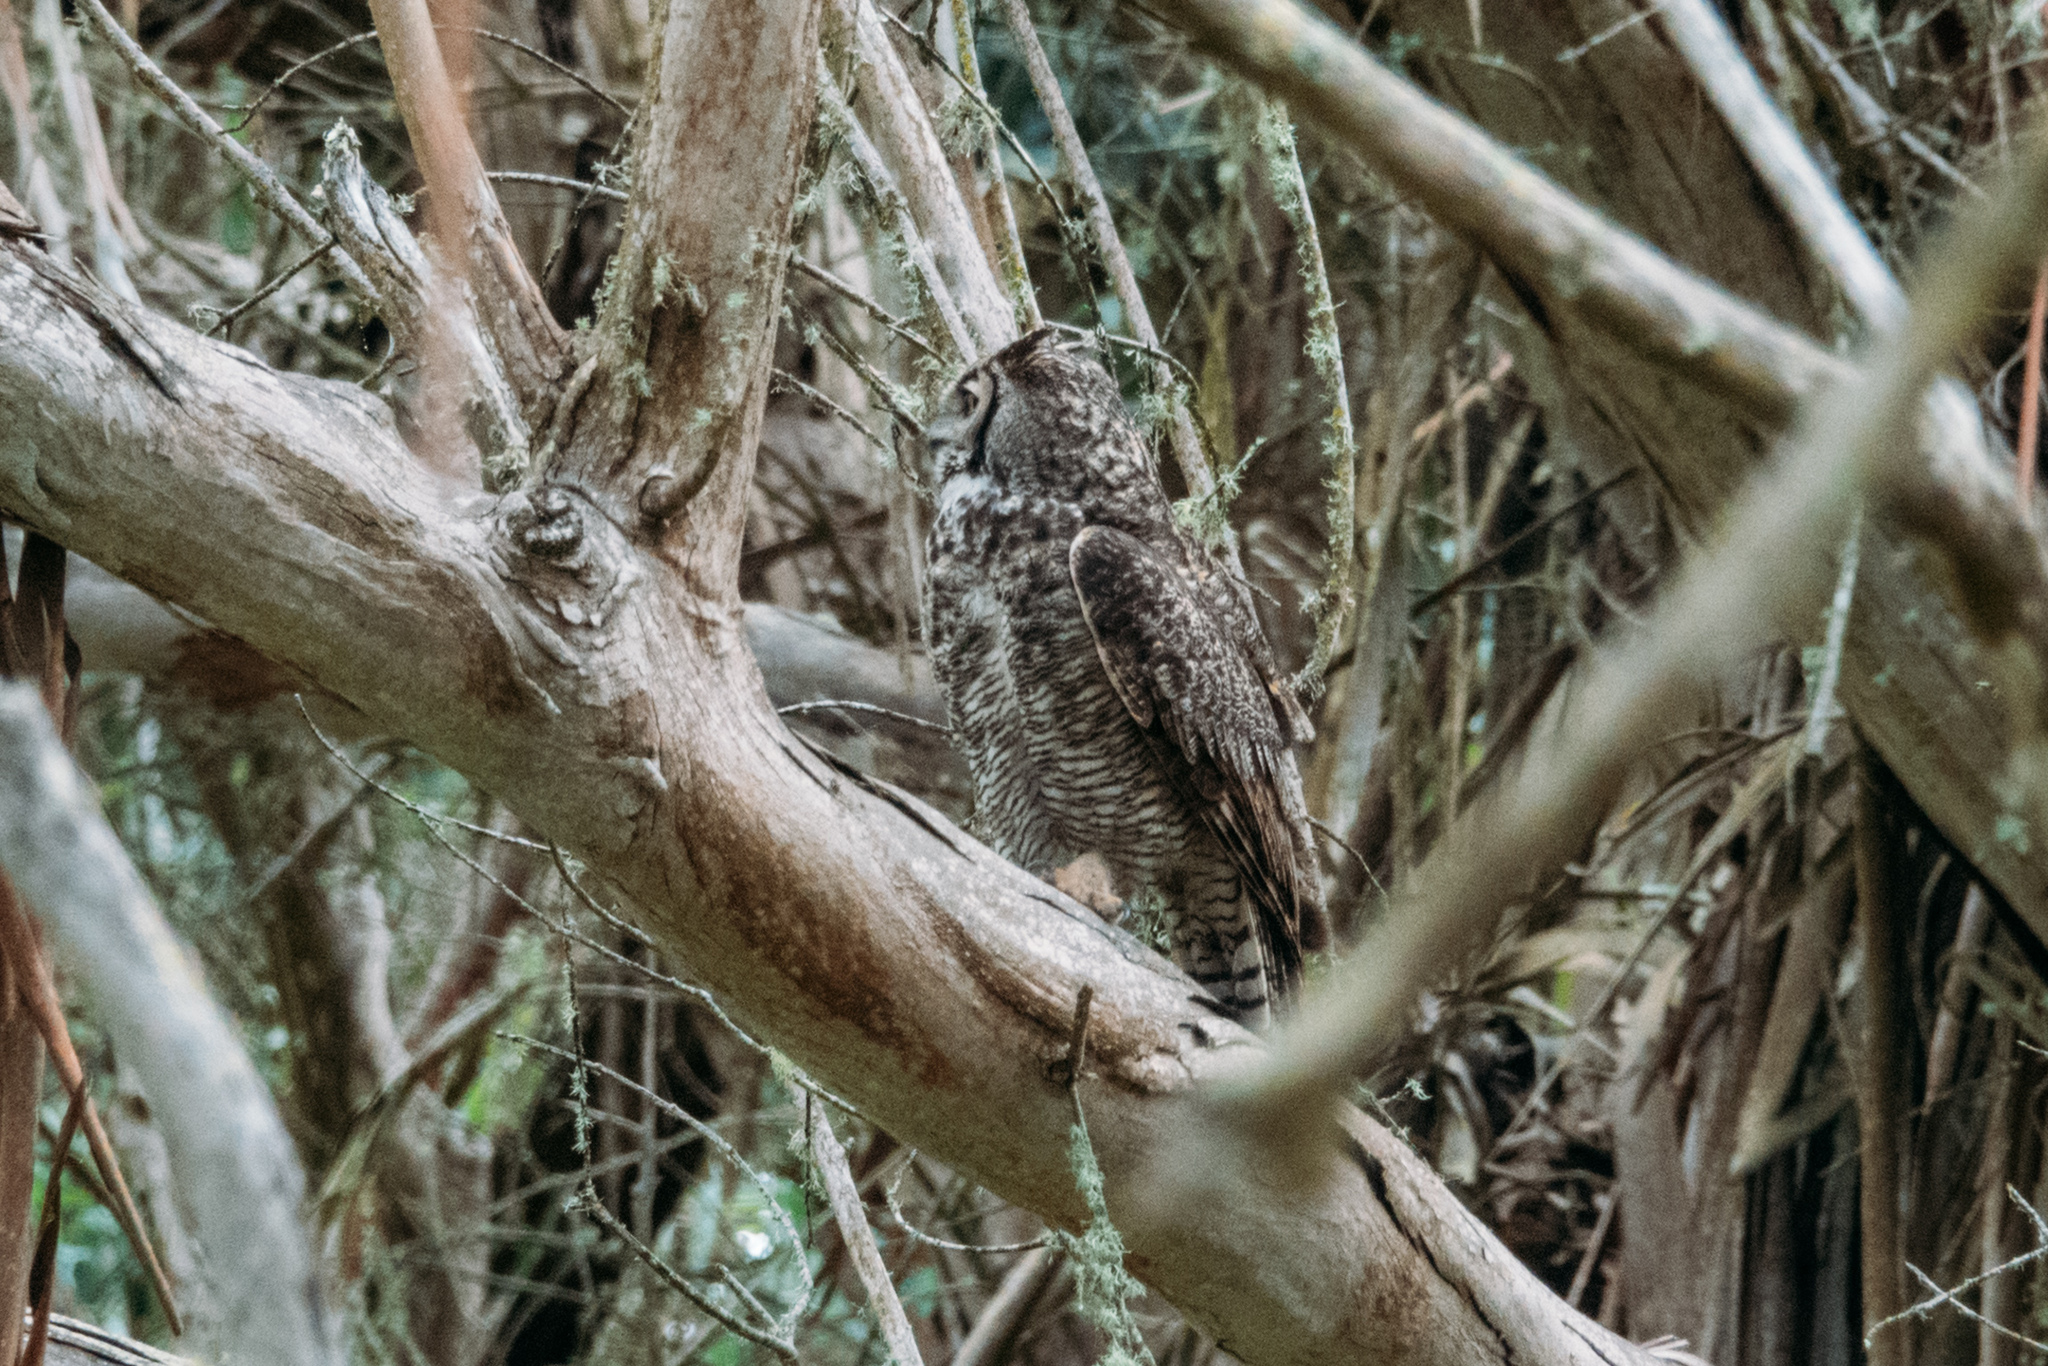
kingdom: Animalia
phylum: Chordata
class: Aves
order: Strigiformes
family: Strigidae
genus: Bubo
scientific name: Bubo virginianus
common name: Great horned owl
